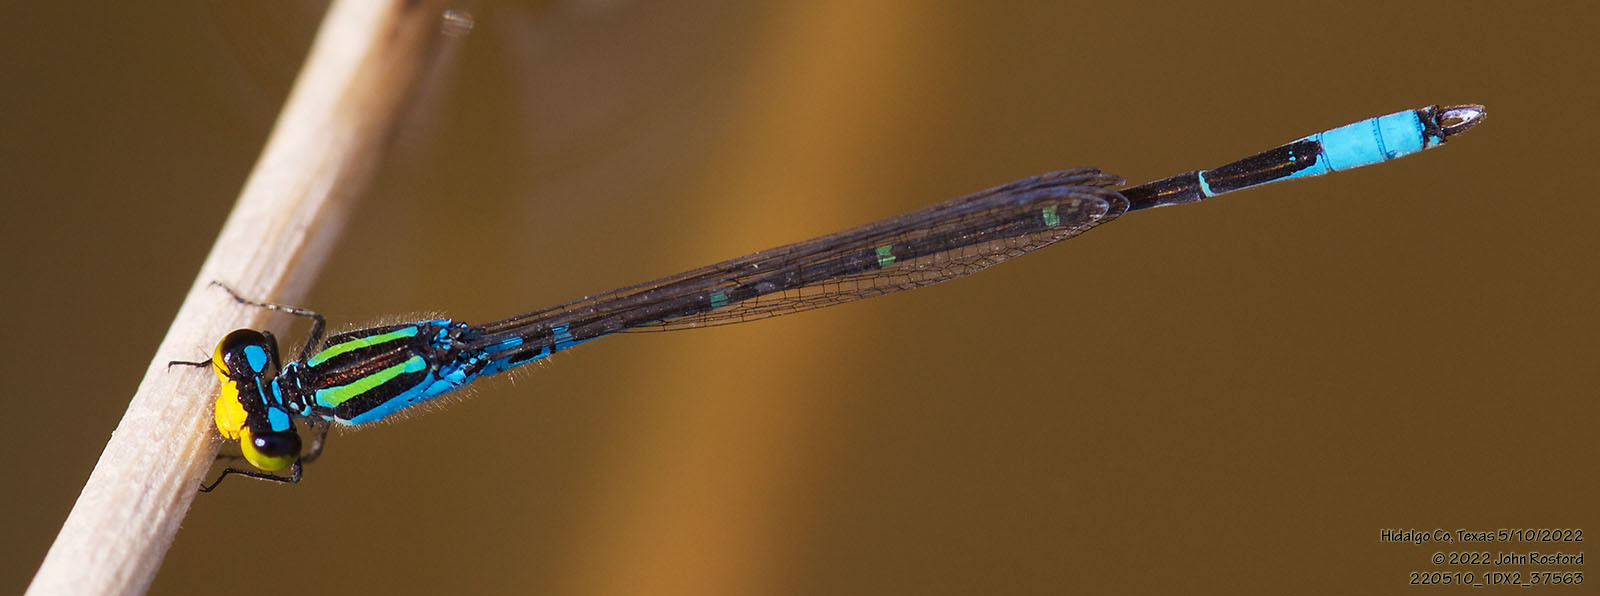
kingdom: Animalia
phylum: Arthropoda
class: Insecta
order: Odonata
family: Coenagrionidae
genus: Neoerythromma
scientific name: Neoerythromma cultellatum
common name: Caribbean yellowface
